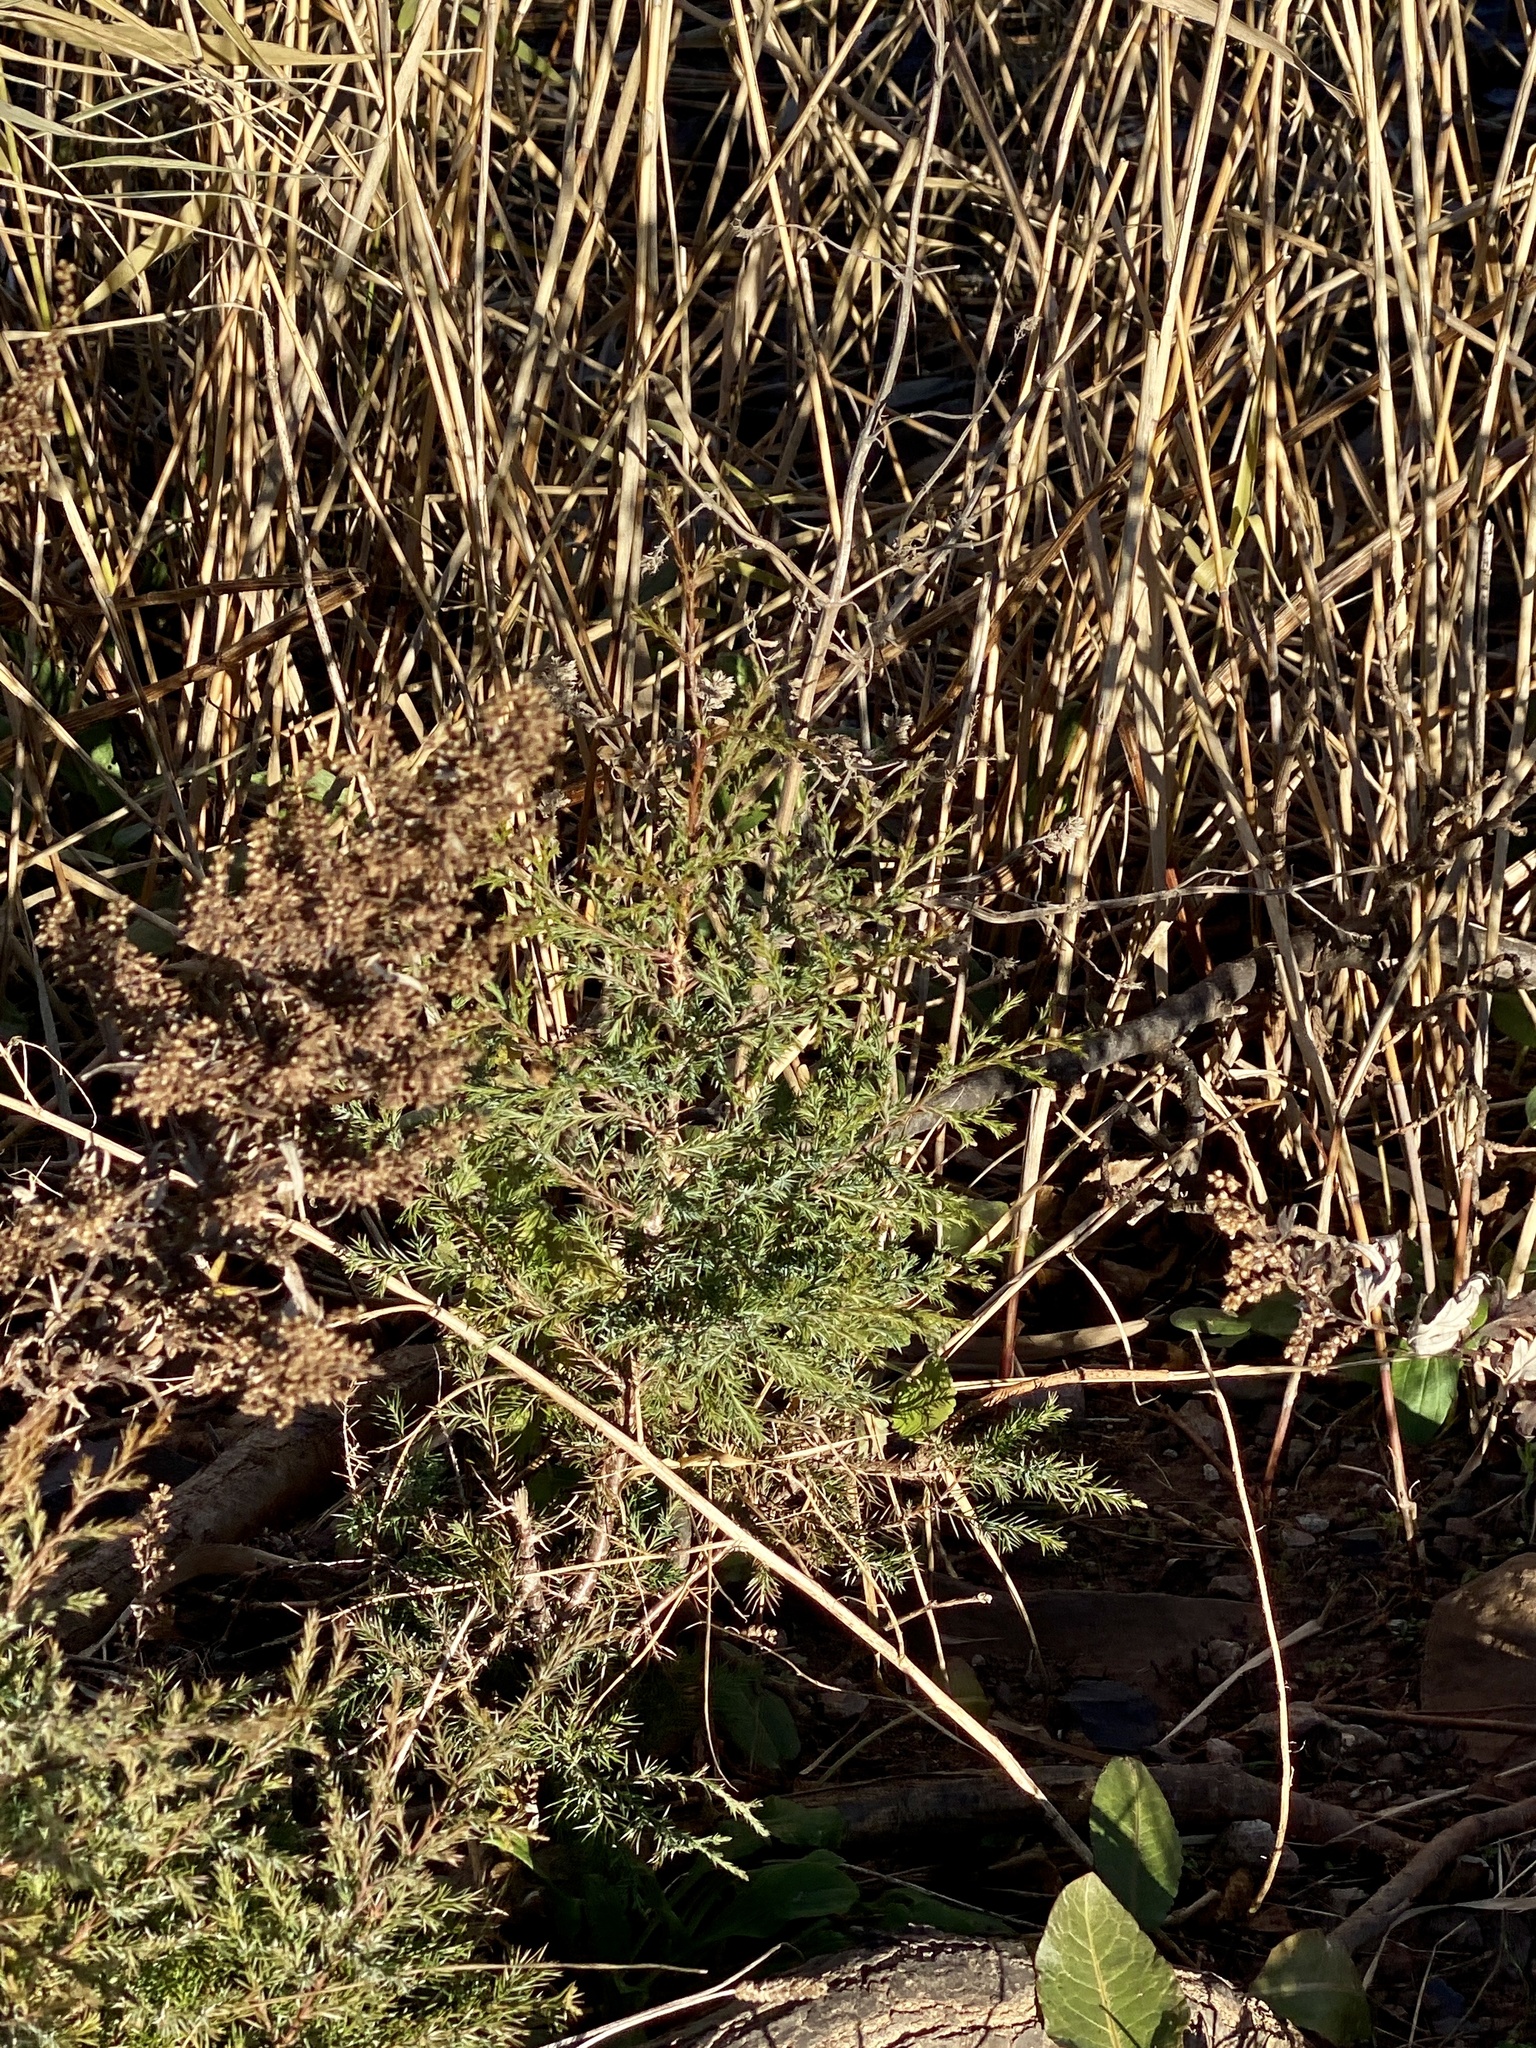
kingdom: Plantae
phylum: Tracheophyta
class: Pinopsida
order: Pinales
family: Cupressaceae
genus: Juniperus
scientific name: Juniperus virginiana
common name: Red juniper
